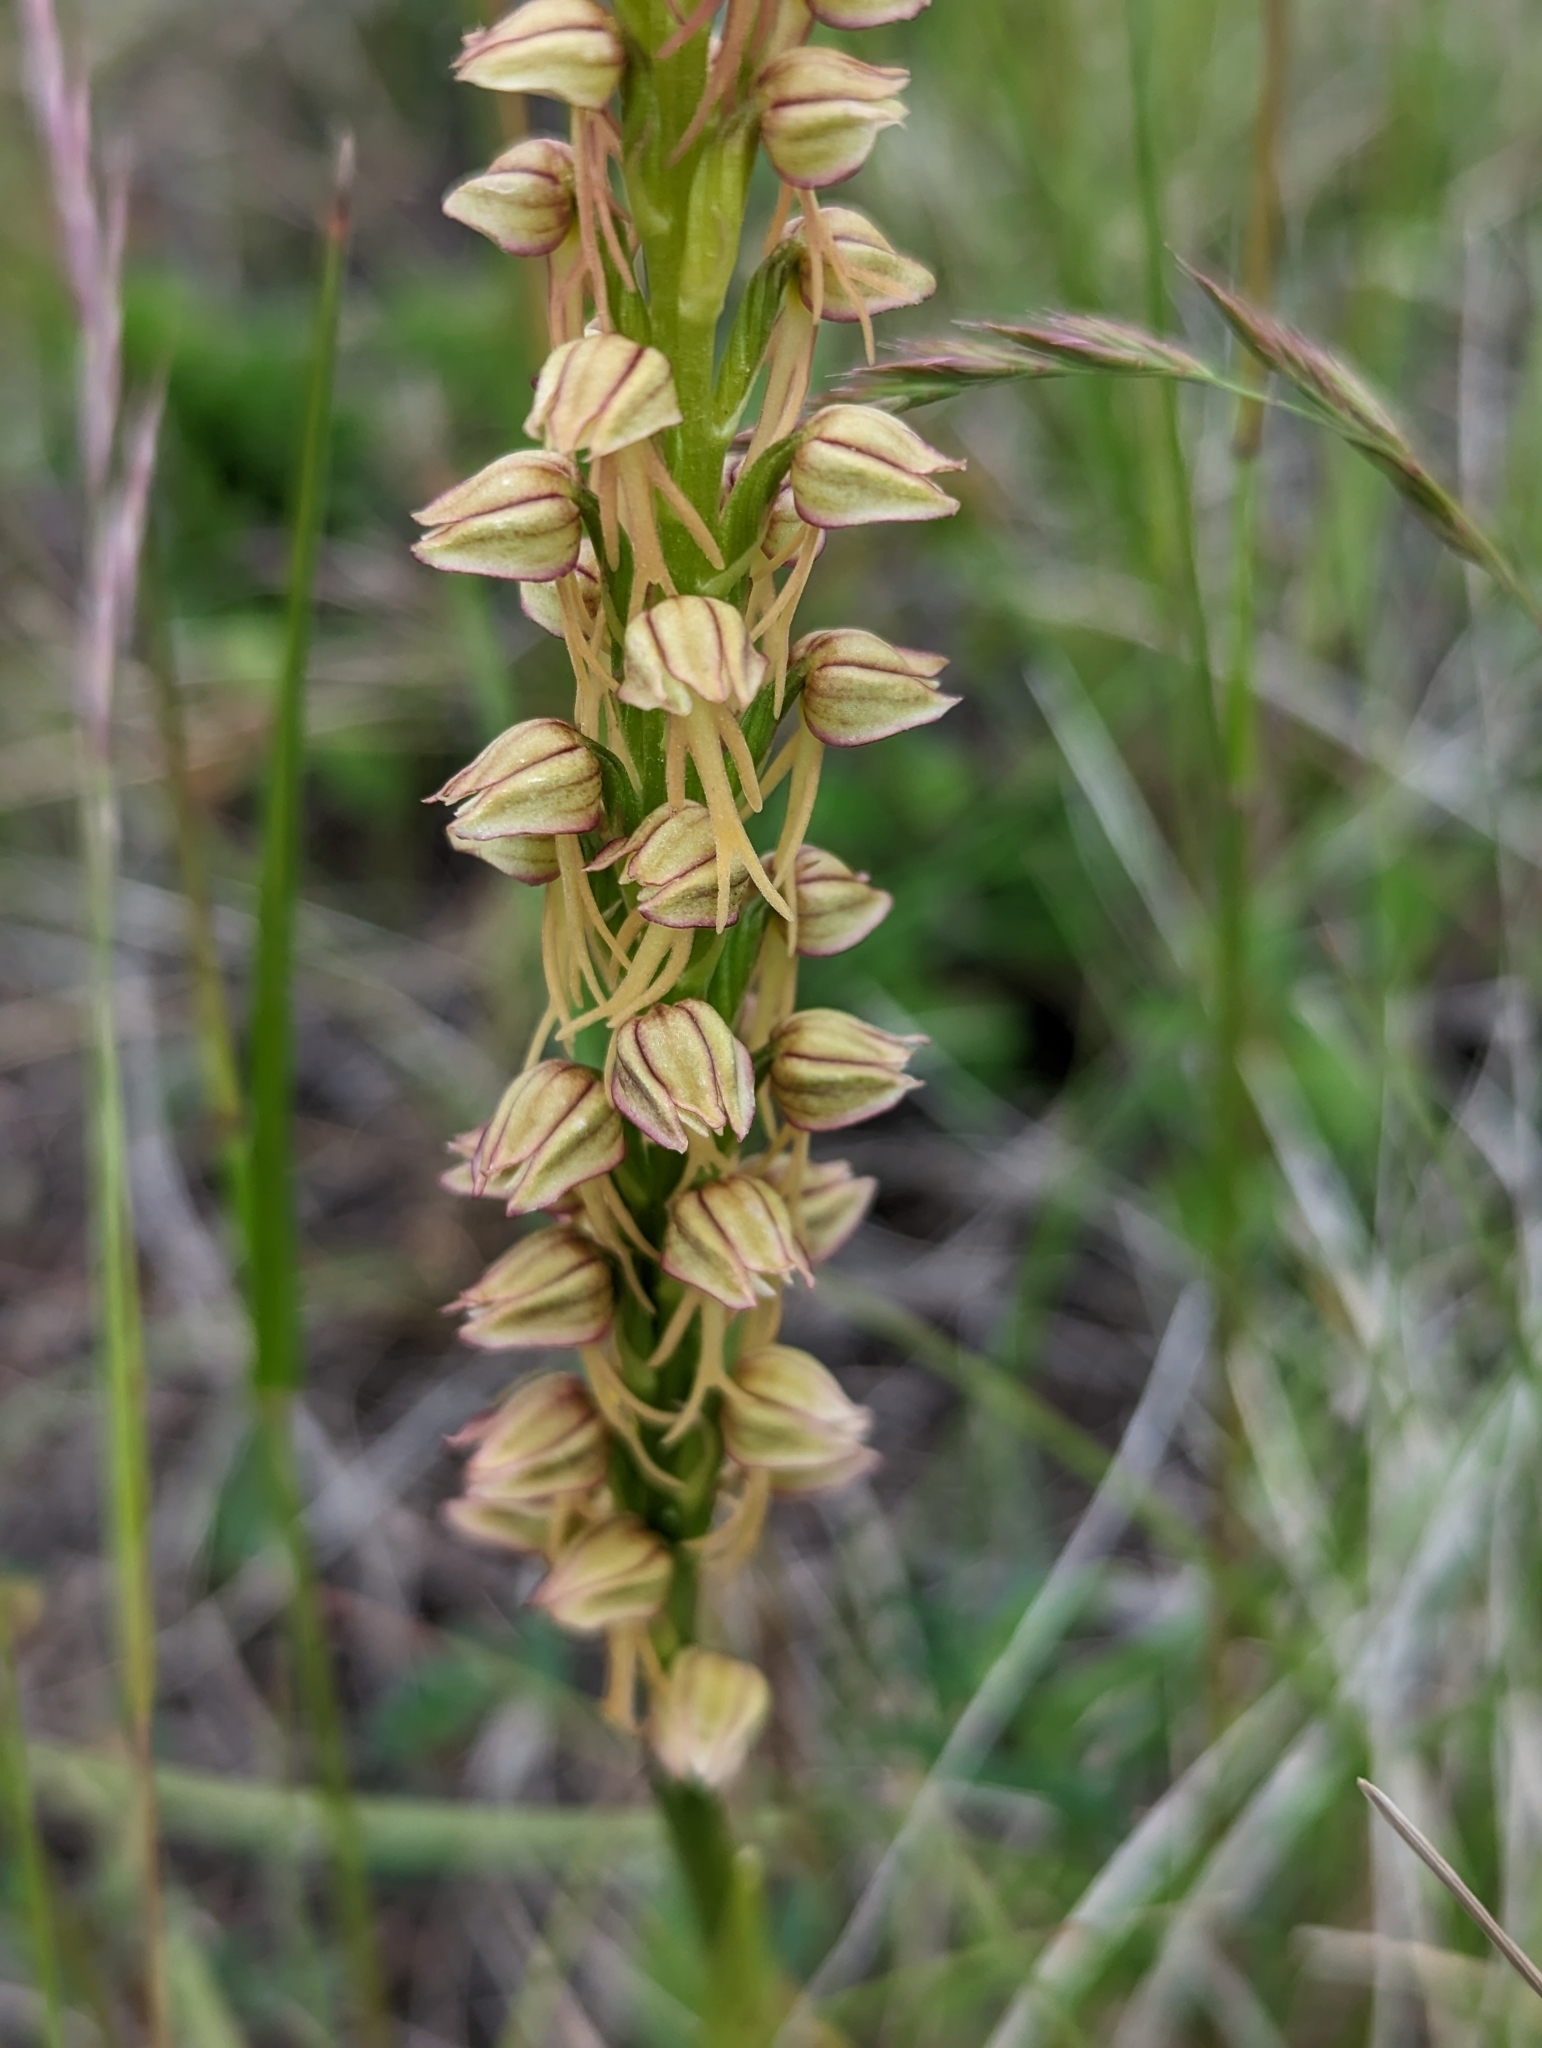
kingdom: Plantae
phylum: Tracheophyta
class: Liliopsida
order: Asparagales
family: Orchidaceae
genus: Orchis
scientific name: Orchis anthropophora
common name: Man orchid
